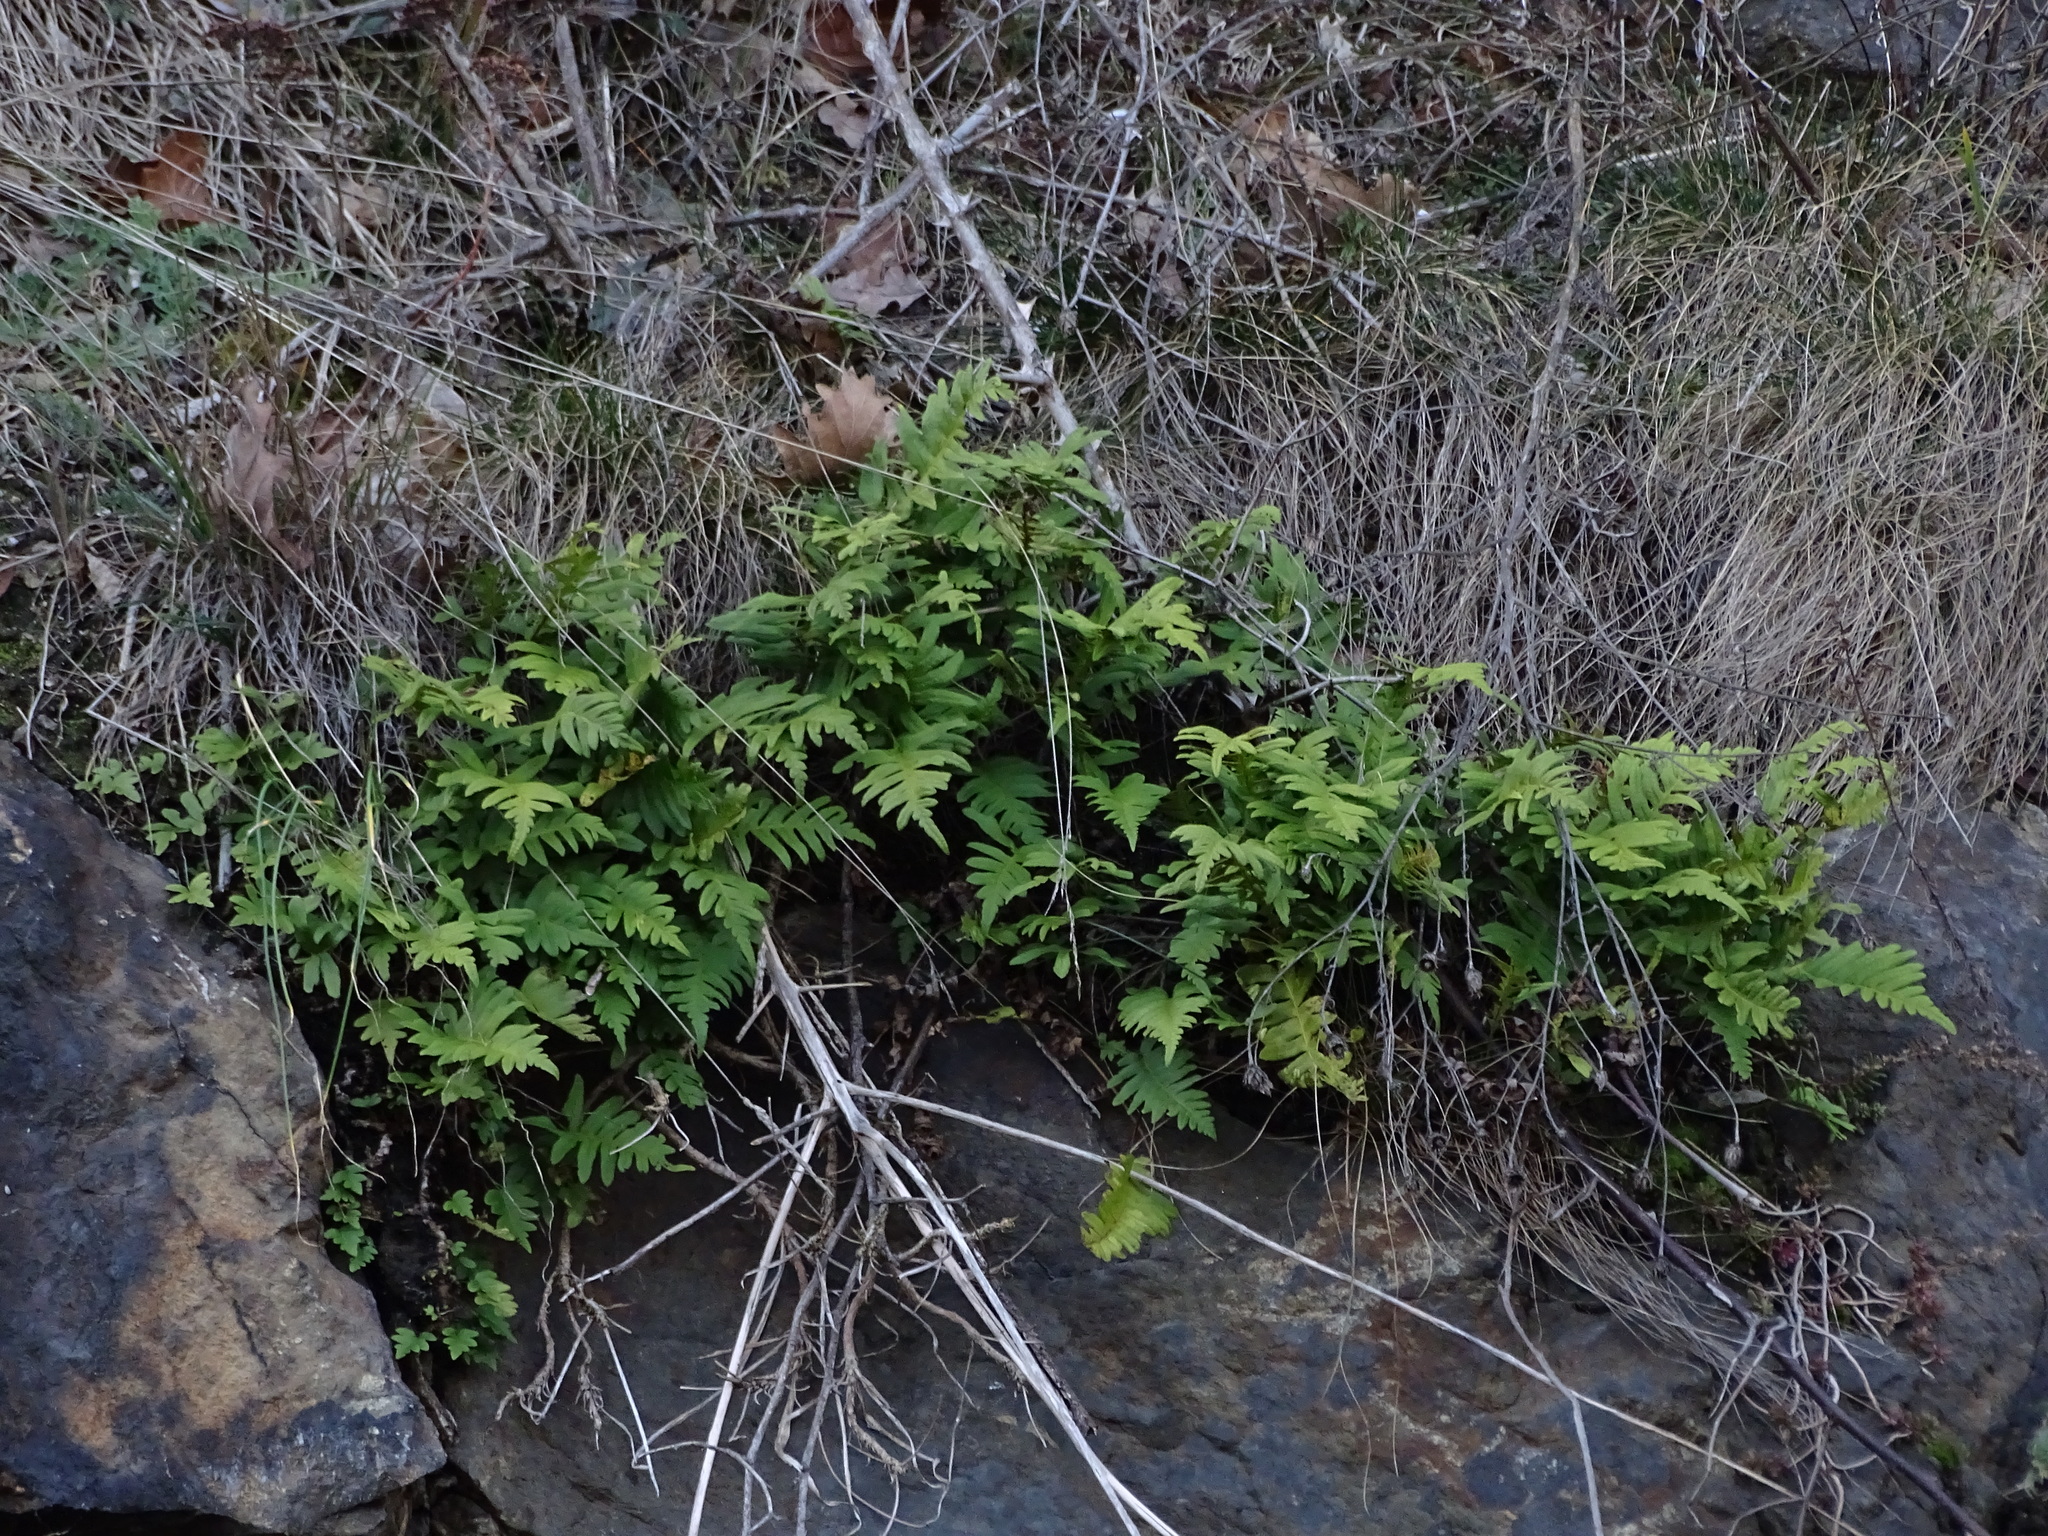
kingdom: Plantae
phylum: Tracheophyta
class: Polypodiopsida
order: Polypodiales
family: Polypodiaceae
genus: Polypodium
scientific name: Polypodium vulgare
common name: Common polypody
